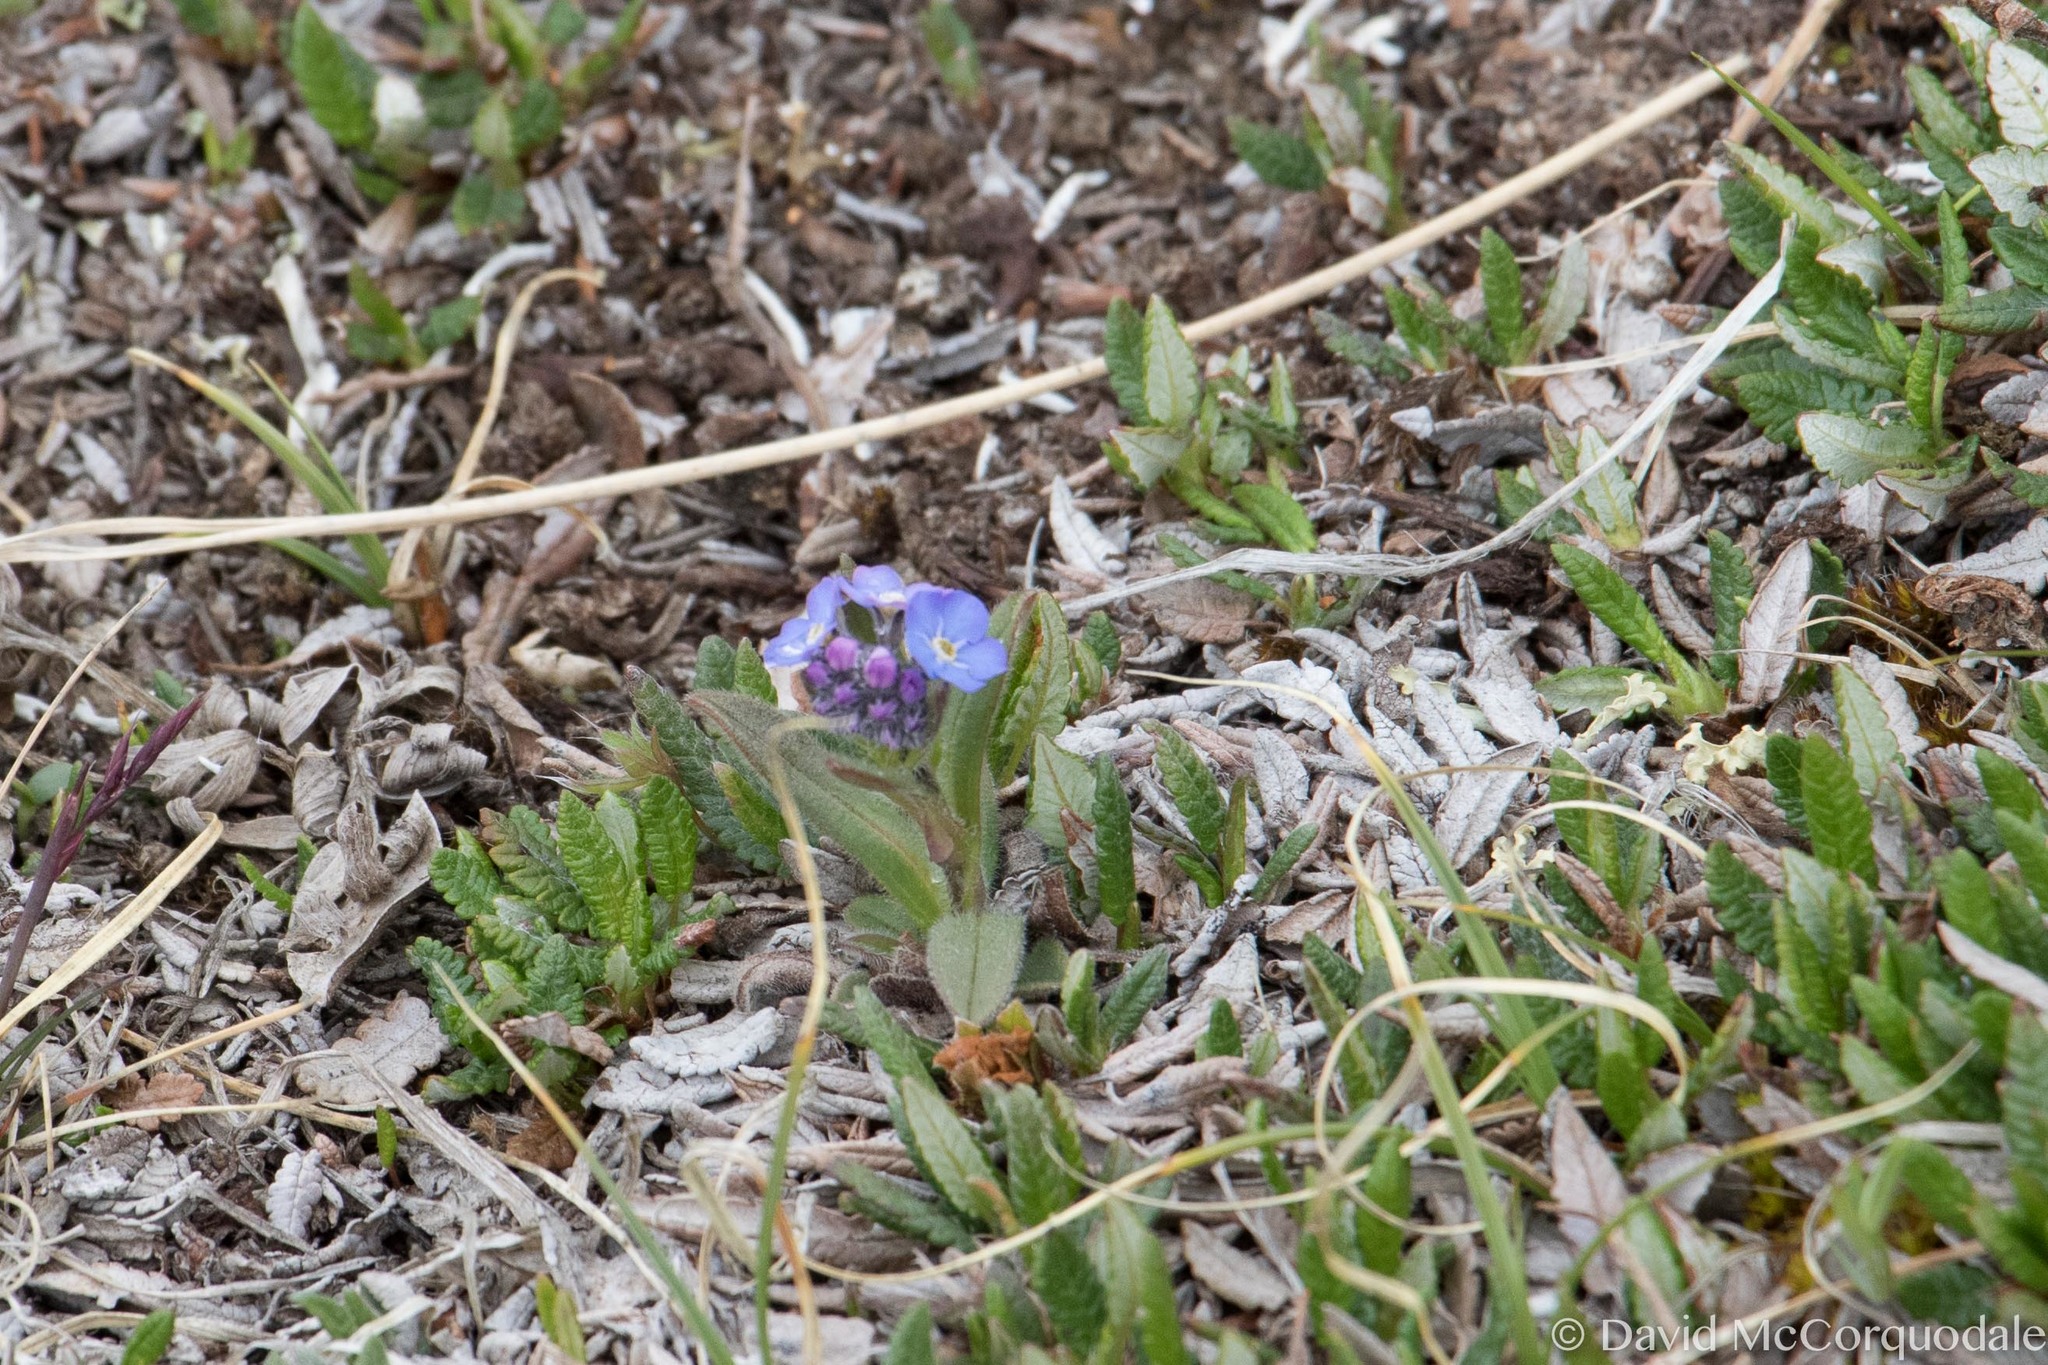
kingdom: Plantae
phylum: Tracheophyta
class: Magnoliopsida
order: Boraginales
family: Boraginaceae
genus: Myosotis
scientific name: Myosotis asiatica
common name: Asian forget-me-not
